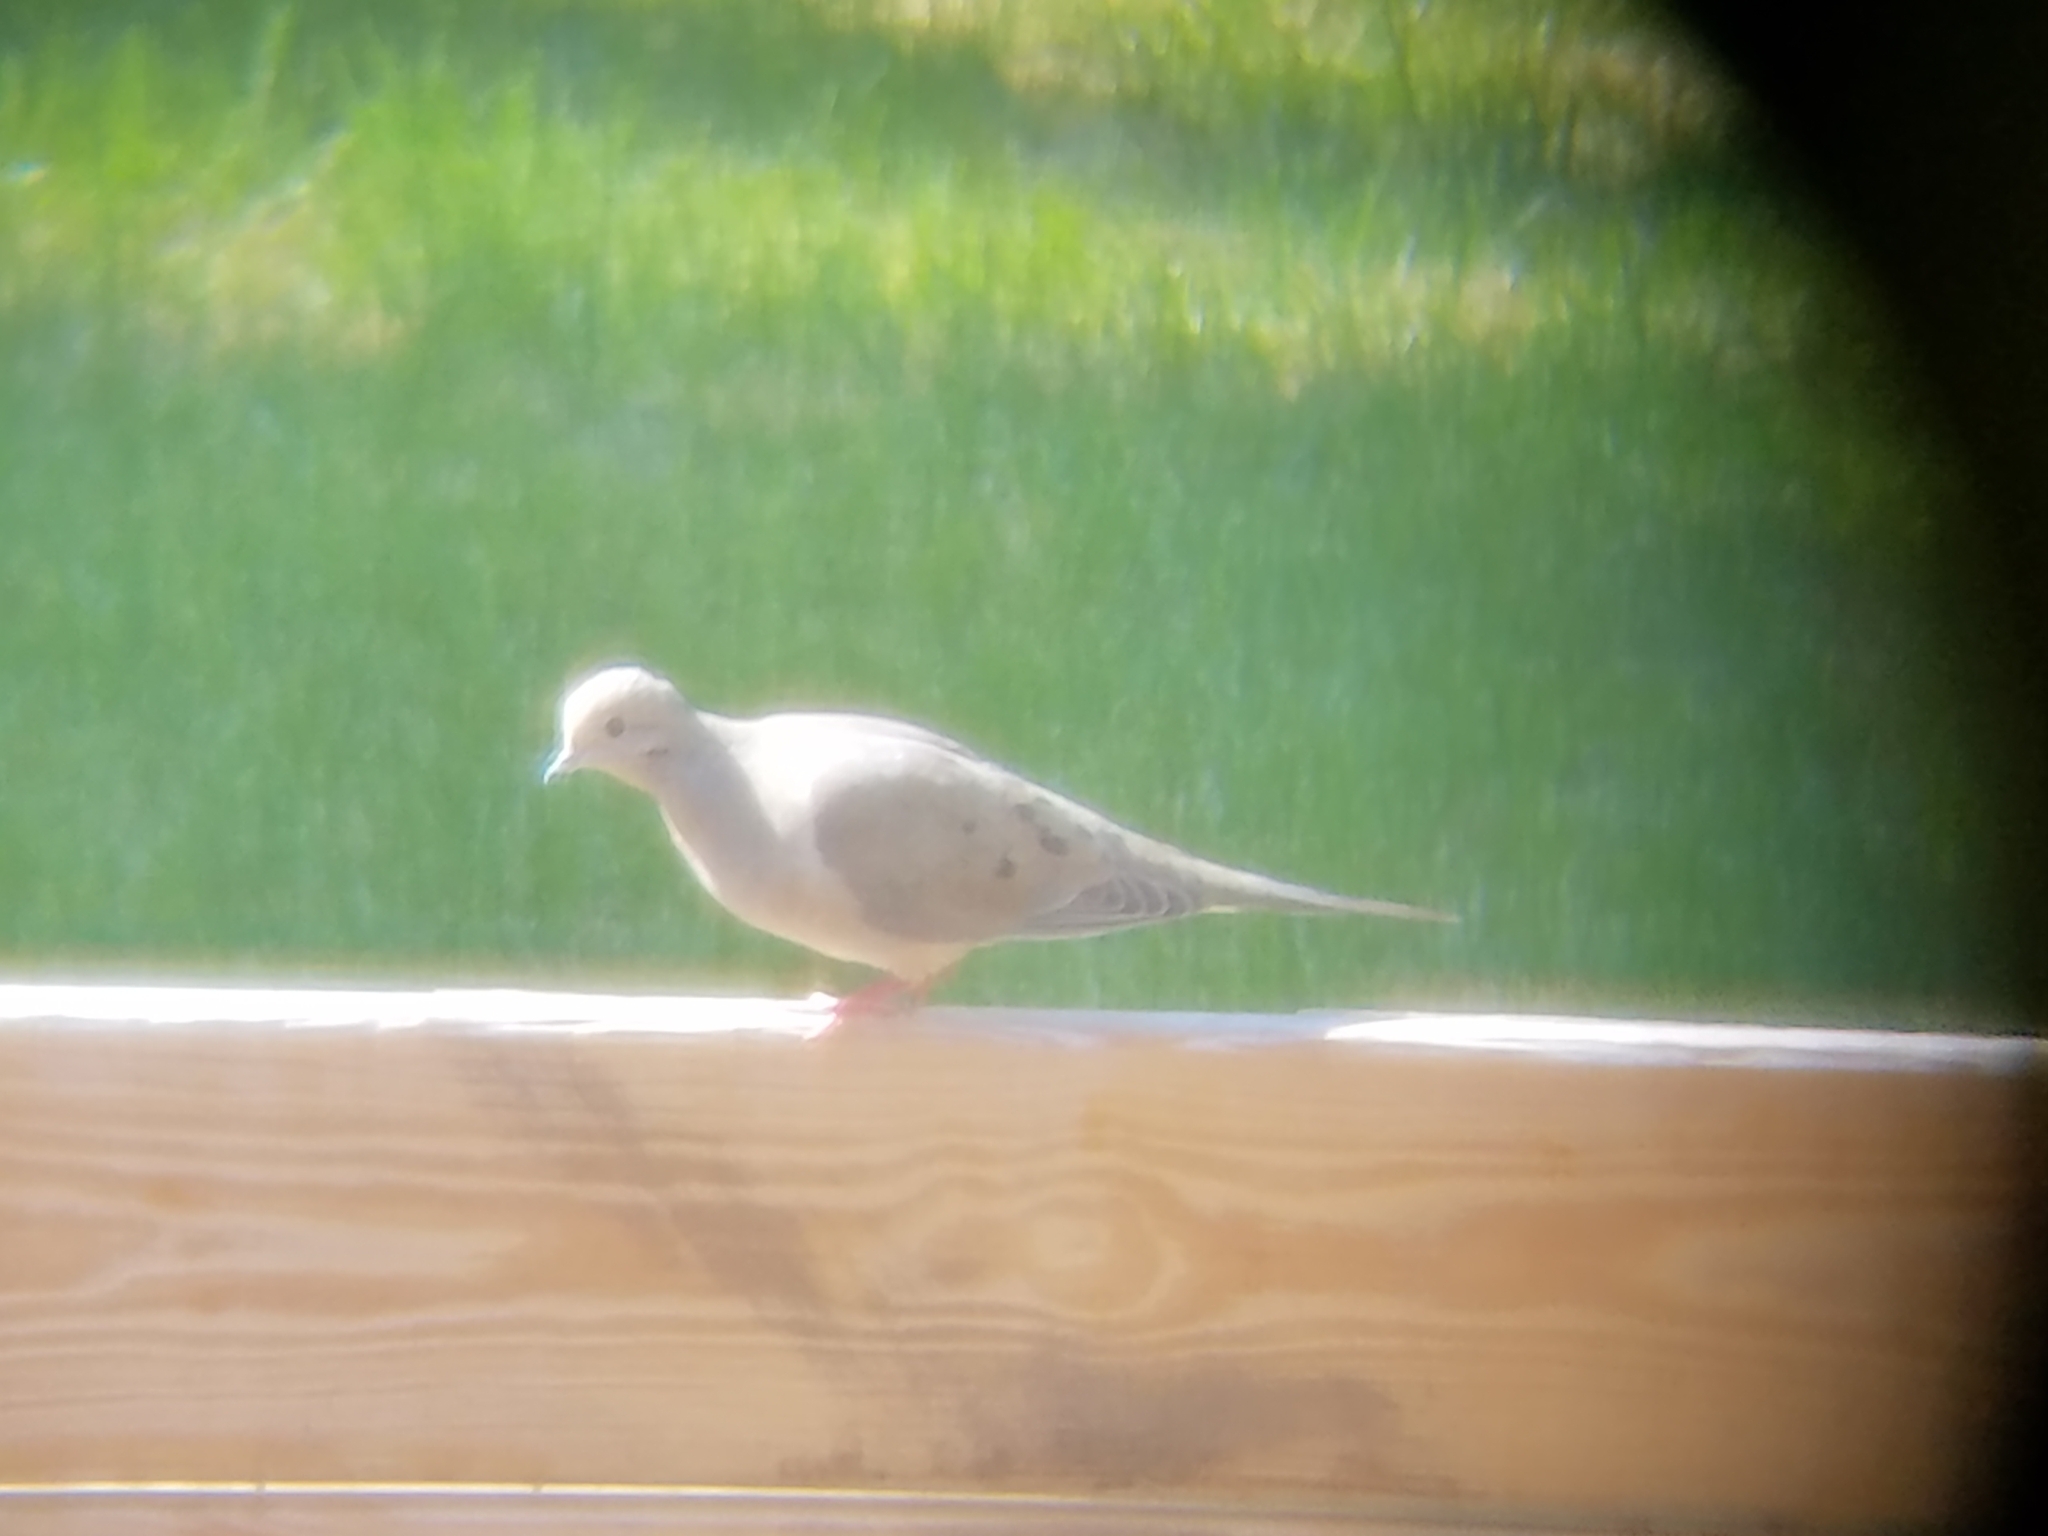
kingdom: Animalia
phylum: Chordata
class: Aves
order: Columbiformes
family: Columbidae
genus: Zenaida
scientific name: Zenaida macroura
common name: Mourning dove
